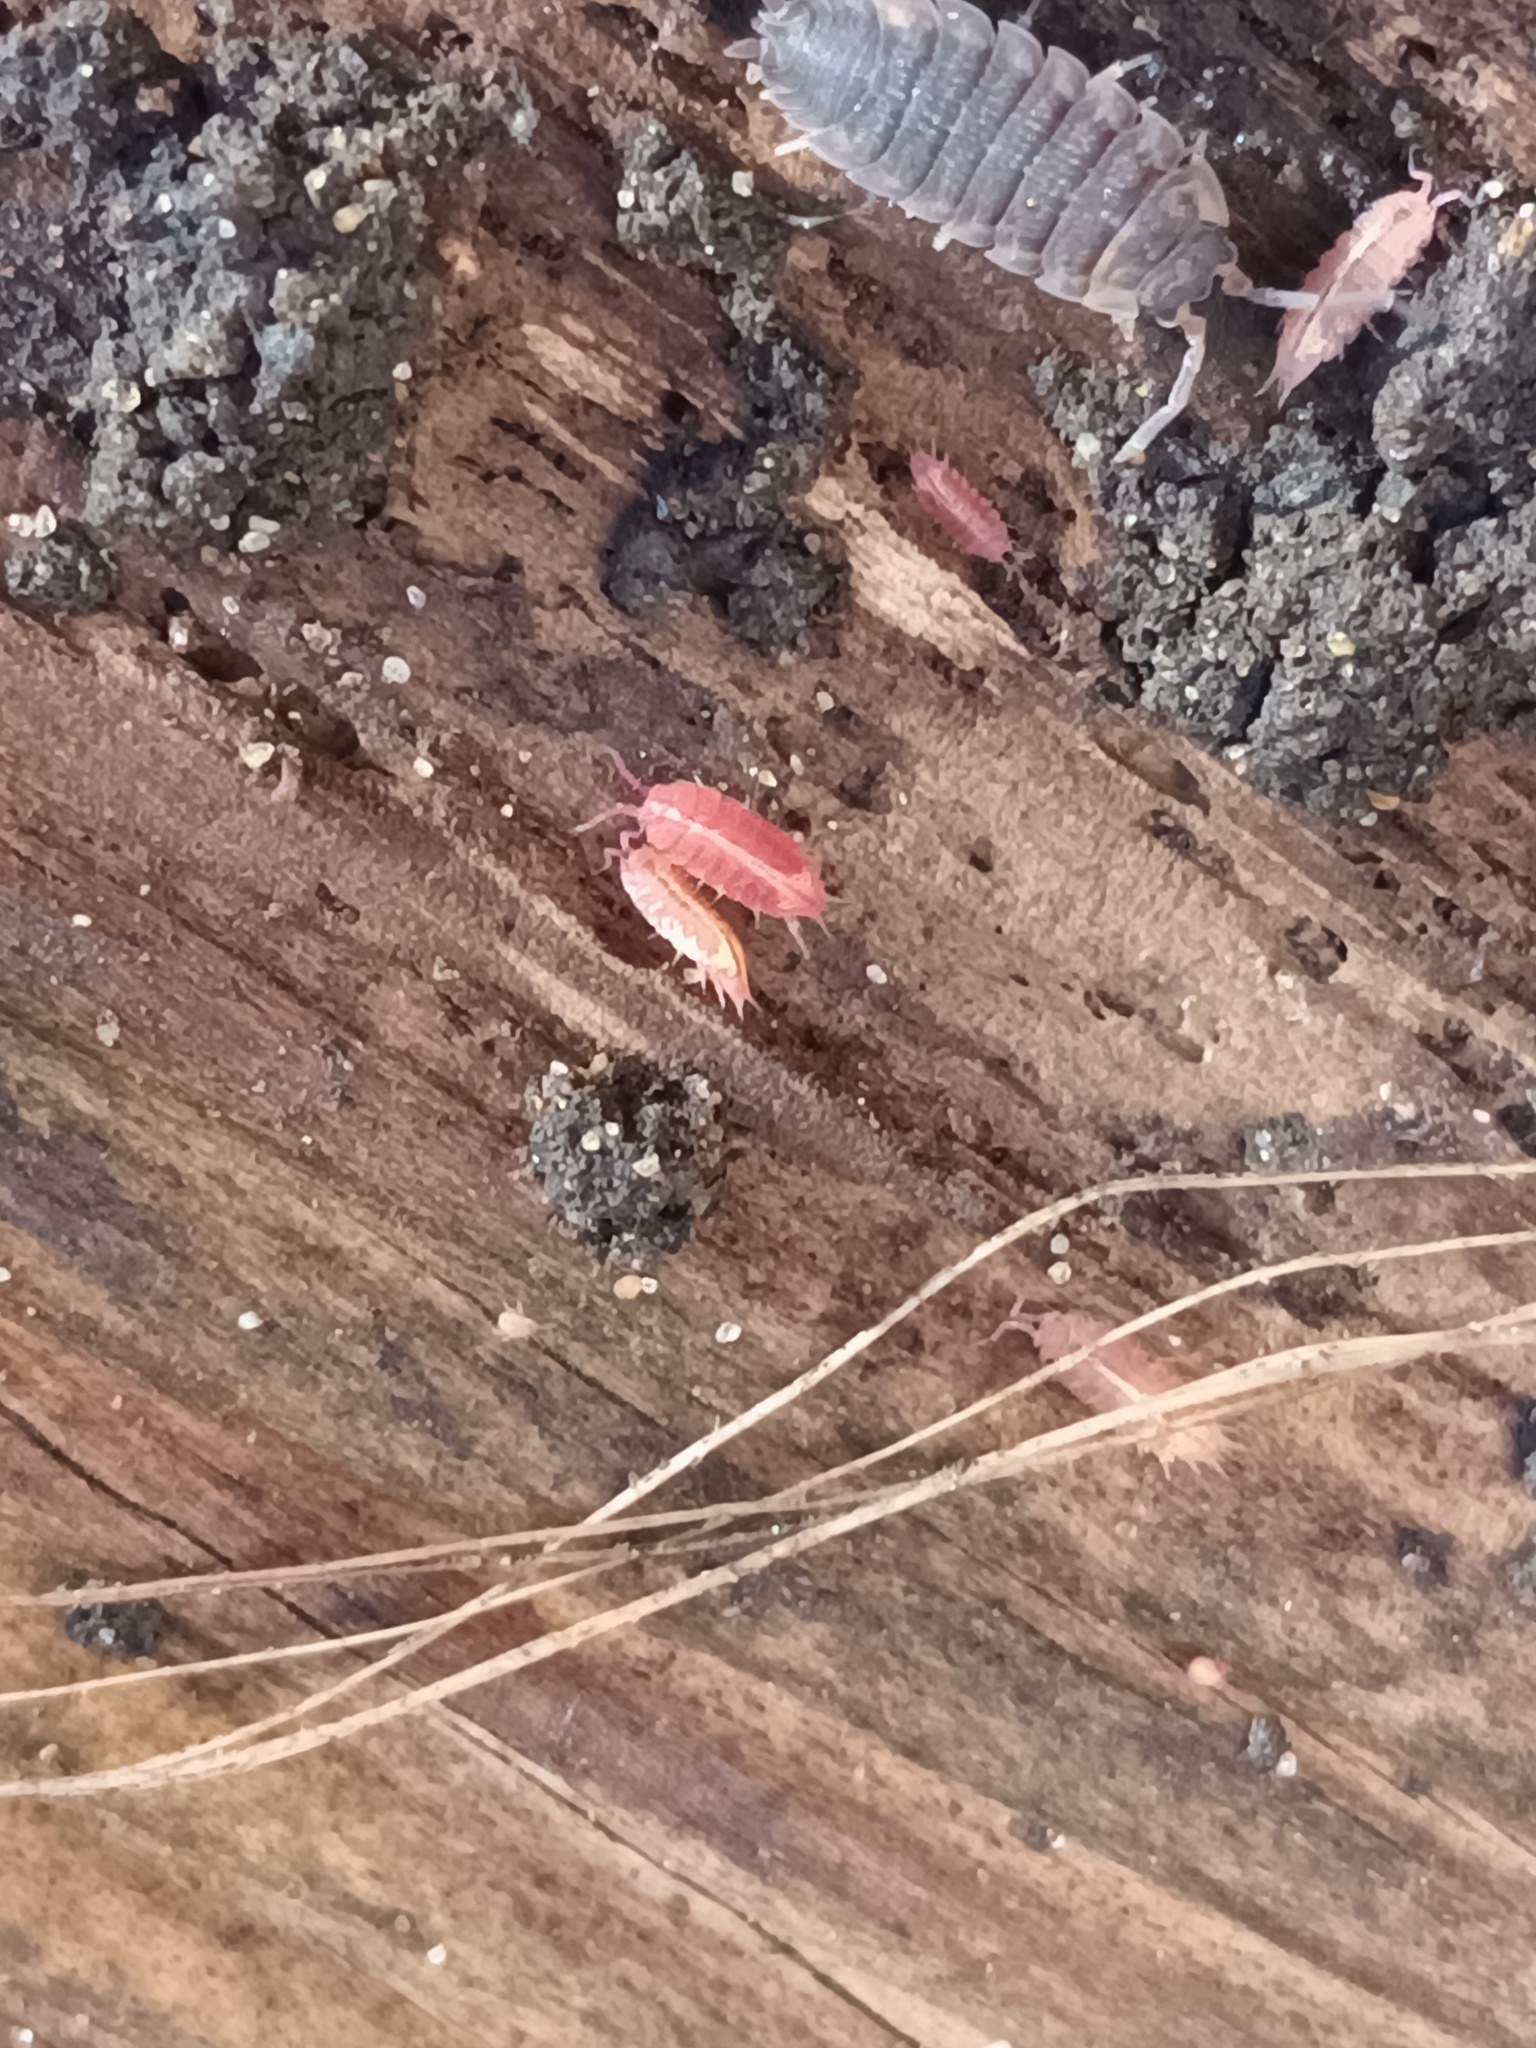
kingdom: Animalia
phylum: Arthropoda
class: Malacostraca
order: Isopoda
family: Trichoniscidae
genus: Androniscus
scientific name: Androniscus dentiger
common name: Rosy woodlouse
